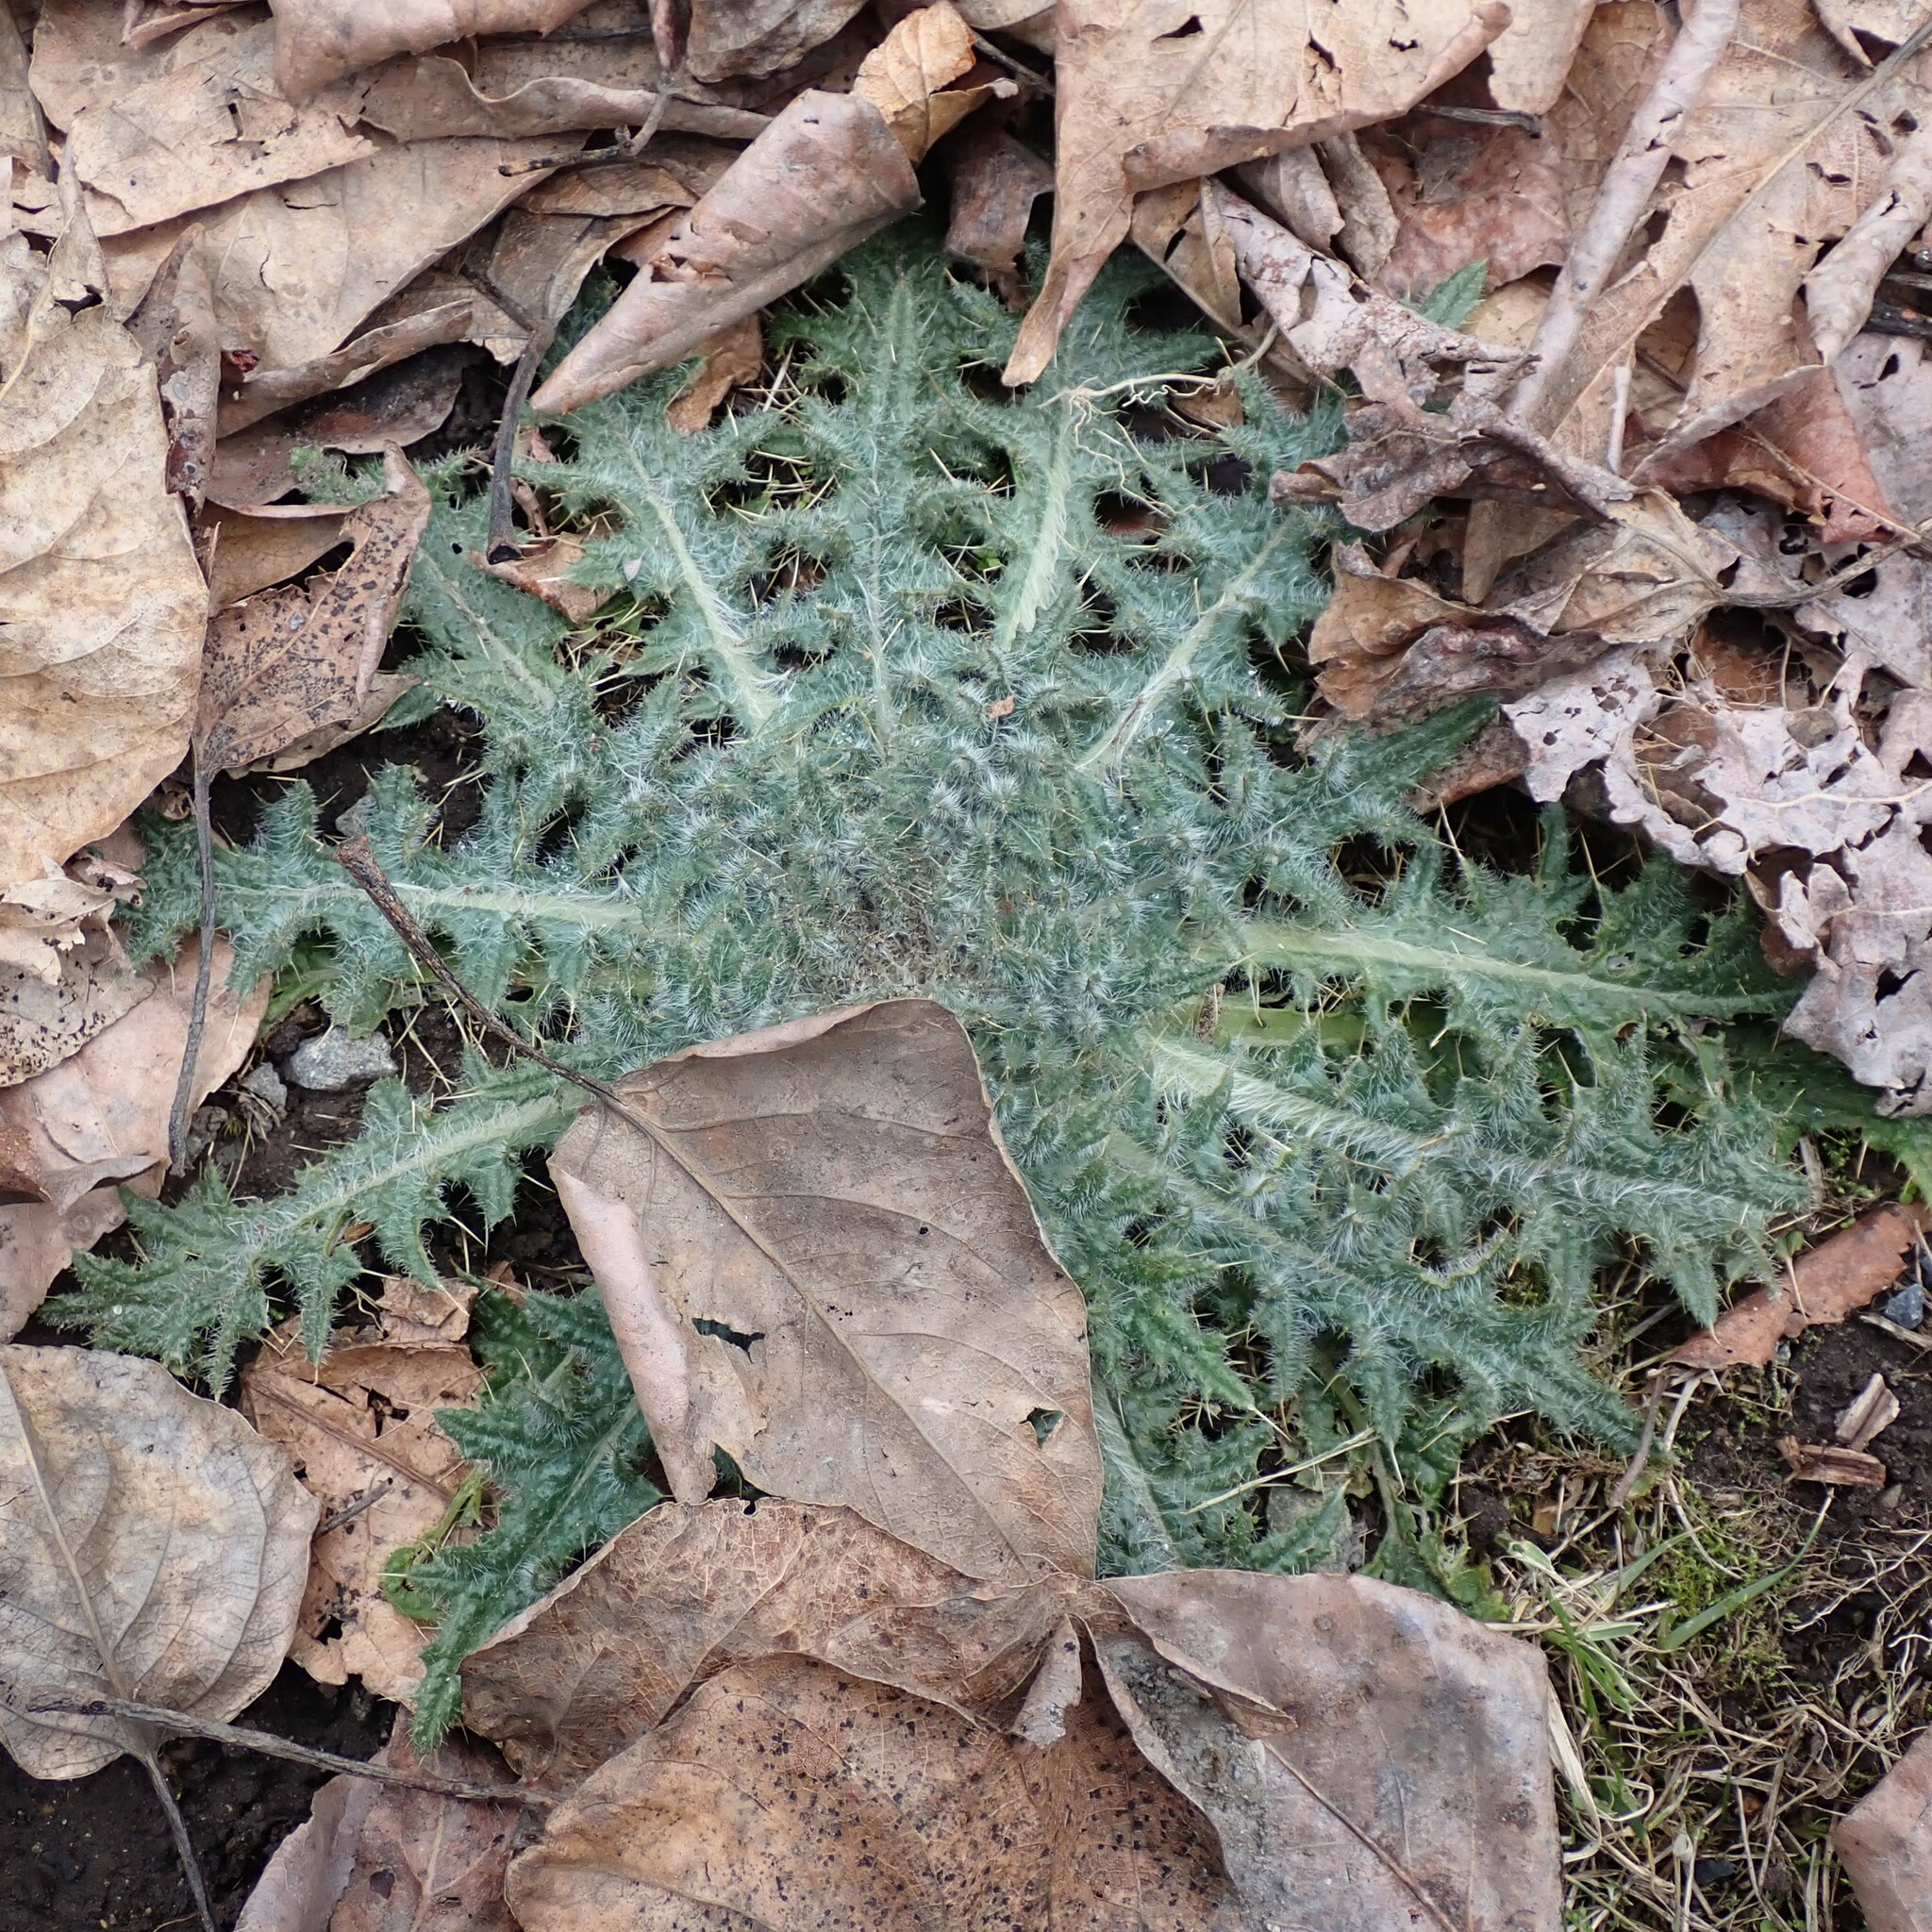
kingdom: Plantae
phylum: Tracheophyta
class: Magnoliopsida
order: Asterales
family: Asteraceae
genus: Cirsium
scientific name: Cirsium vulgare
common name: Bull thistle
